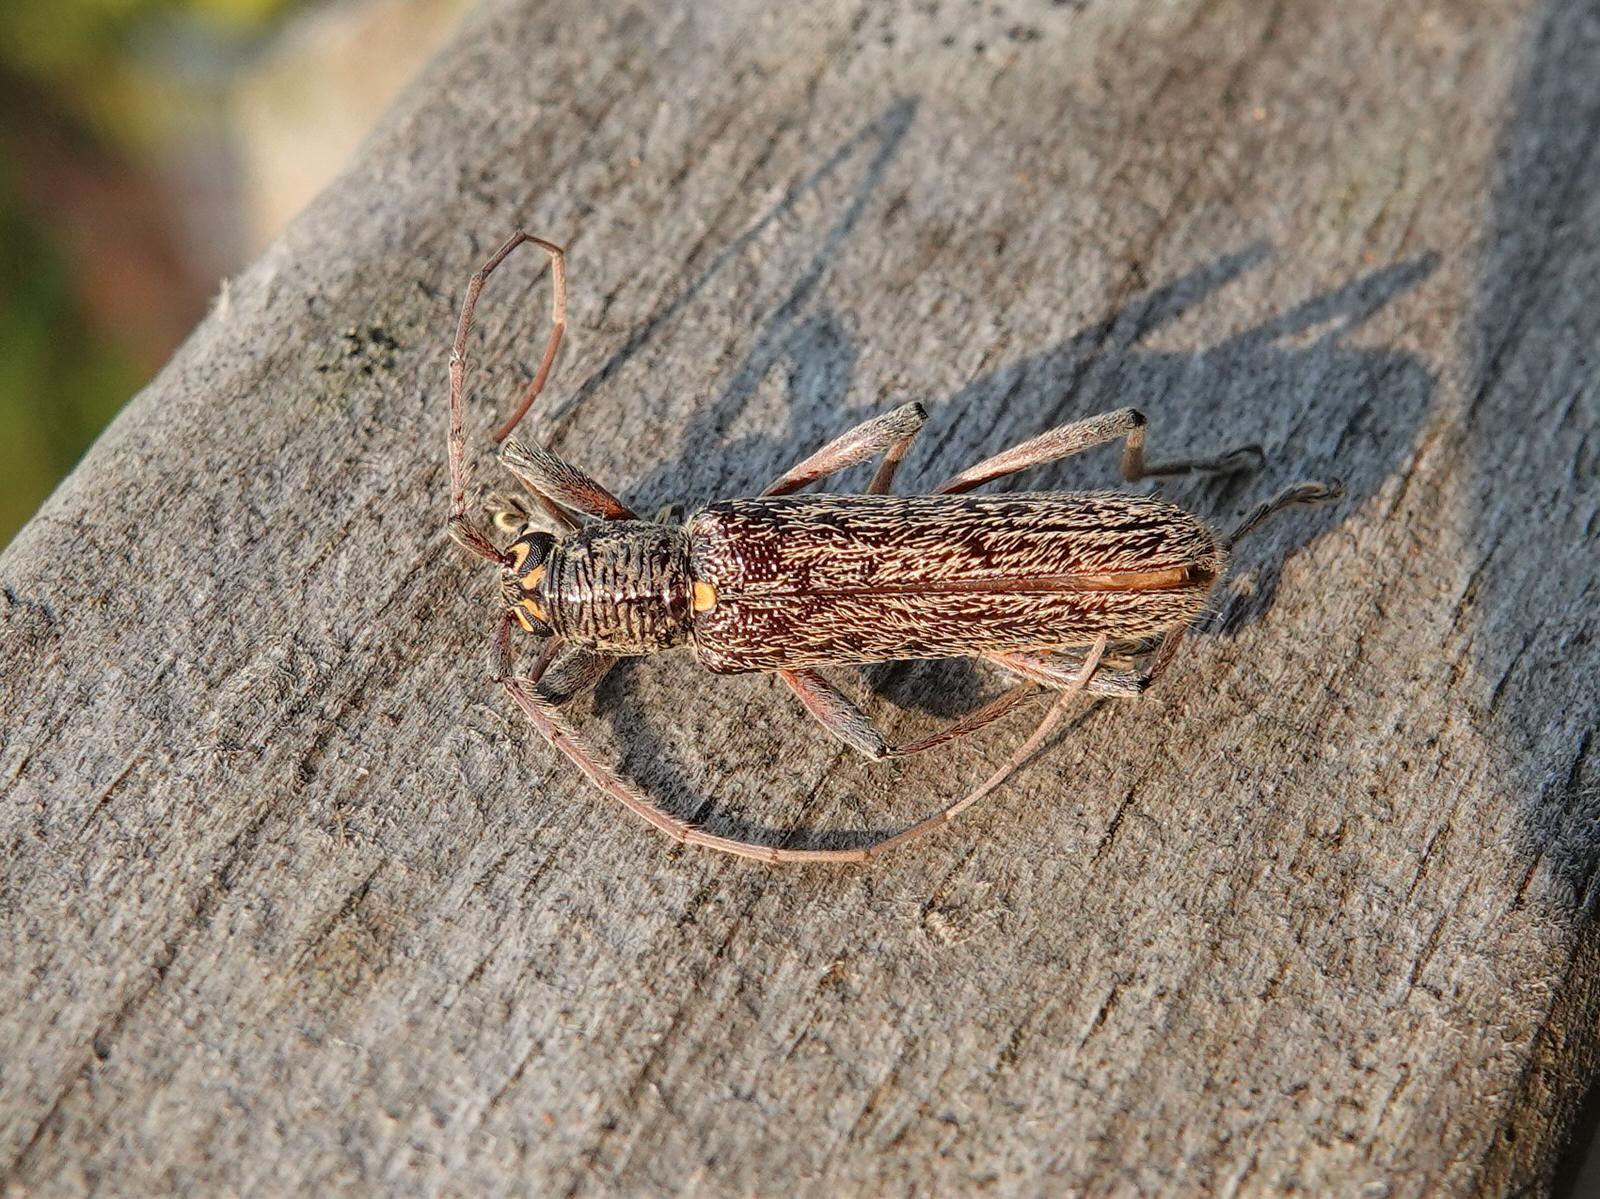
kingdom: Animalia
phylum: Arthropoda
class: Insecta
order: Coleoptera
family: Cerambycidae
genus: Oemona
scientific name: Oemona hirta
